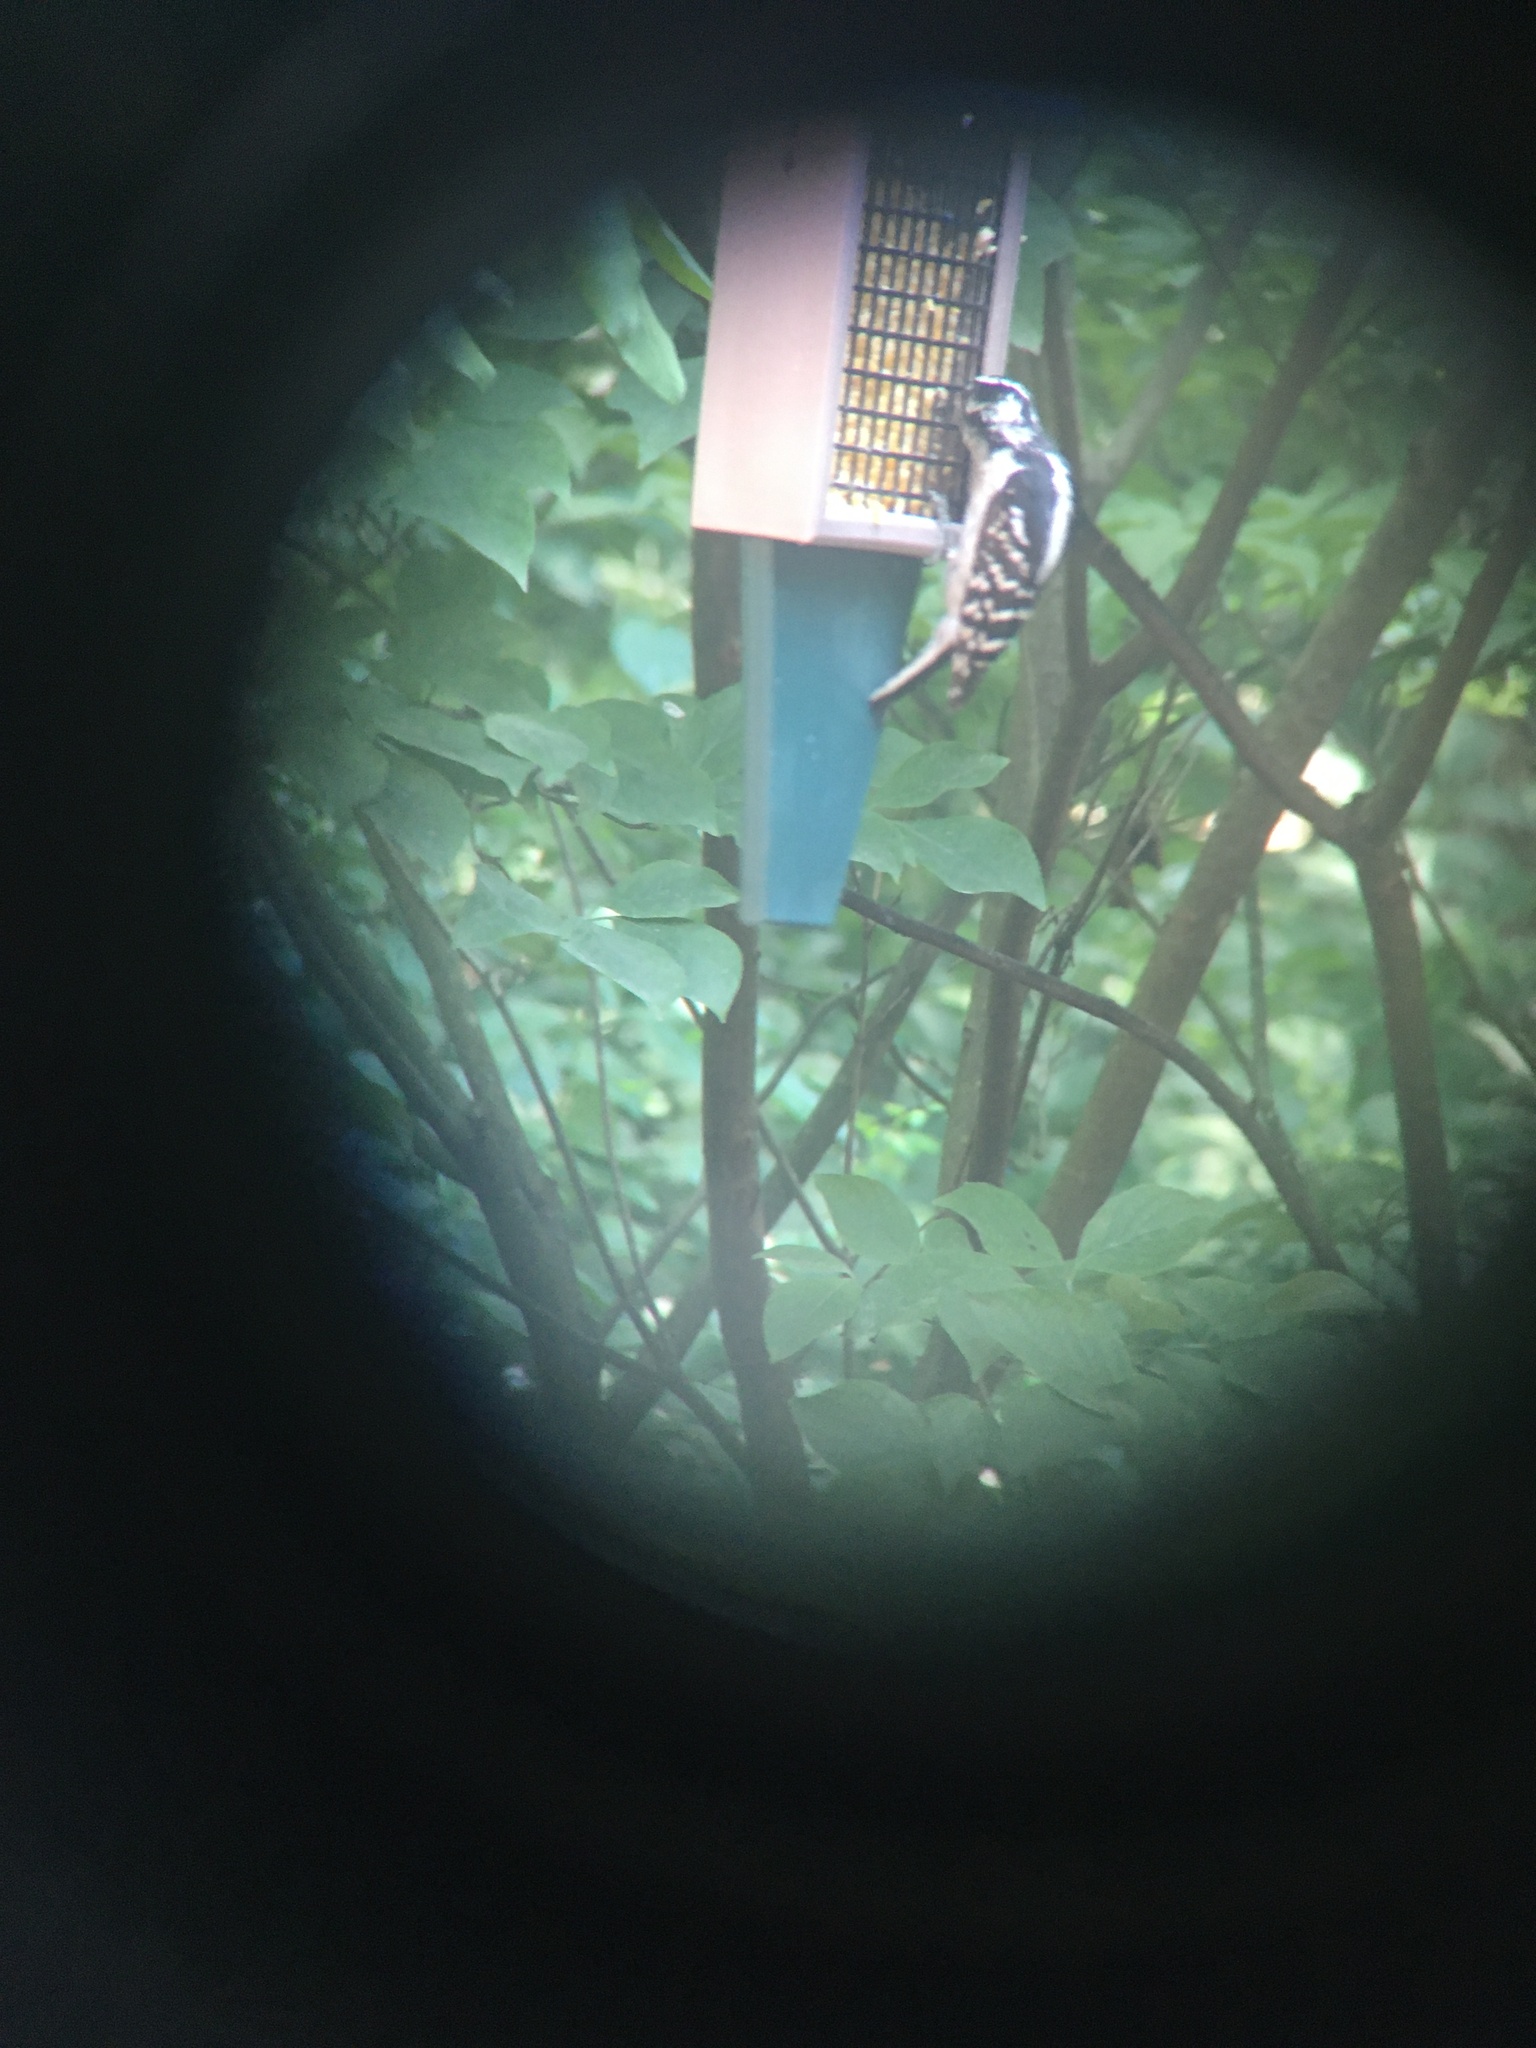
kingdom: Animalia
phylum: Chordata
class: Aves
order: Piciformes
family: Picidae
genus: Dryobates
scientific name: Dryobates pubescens
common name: Downy woodpecker
